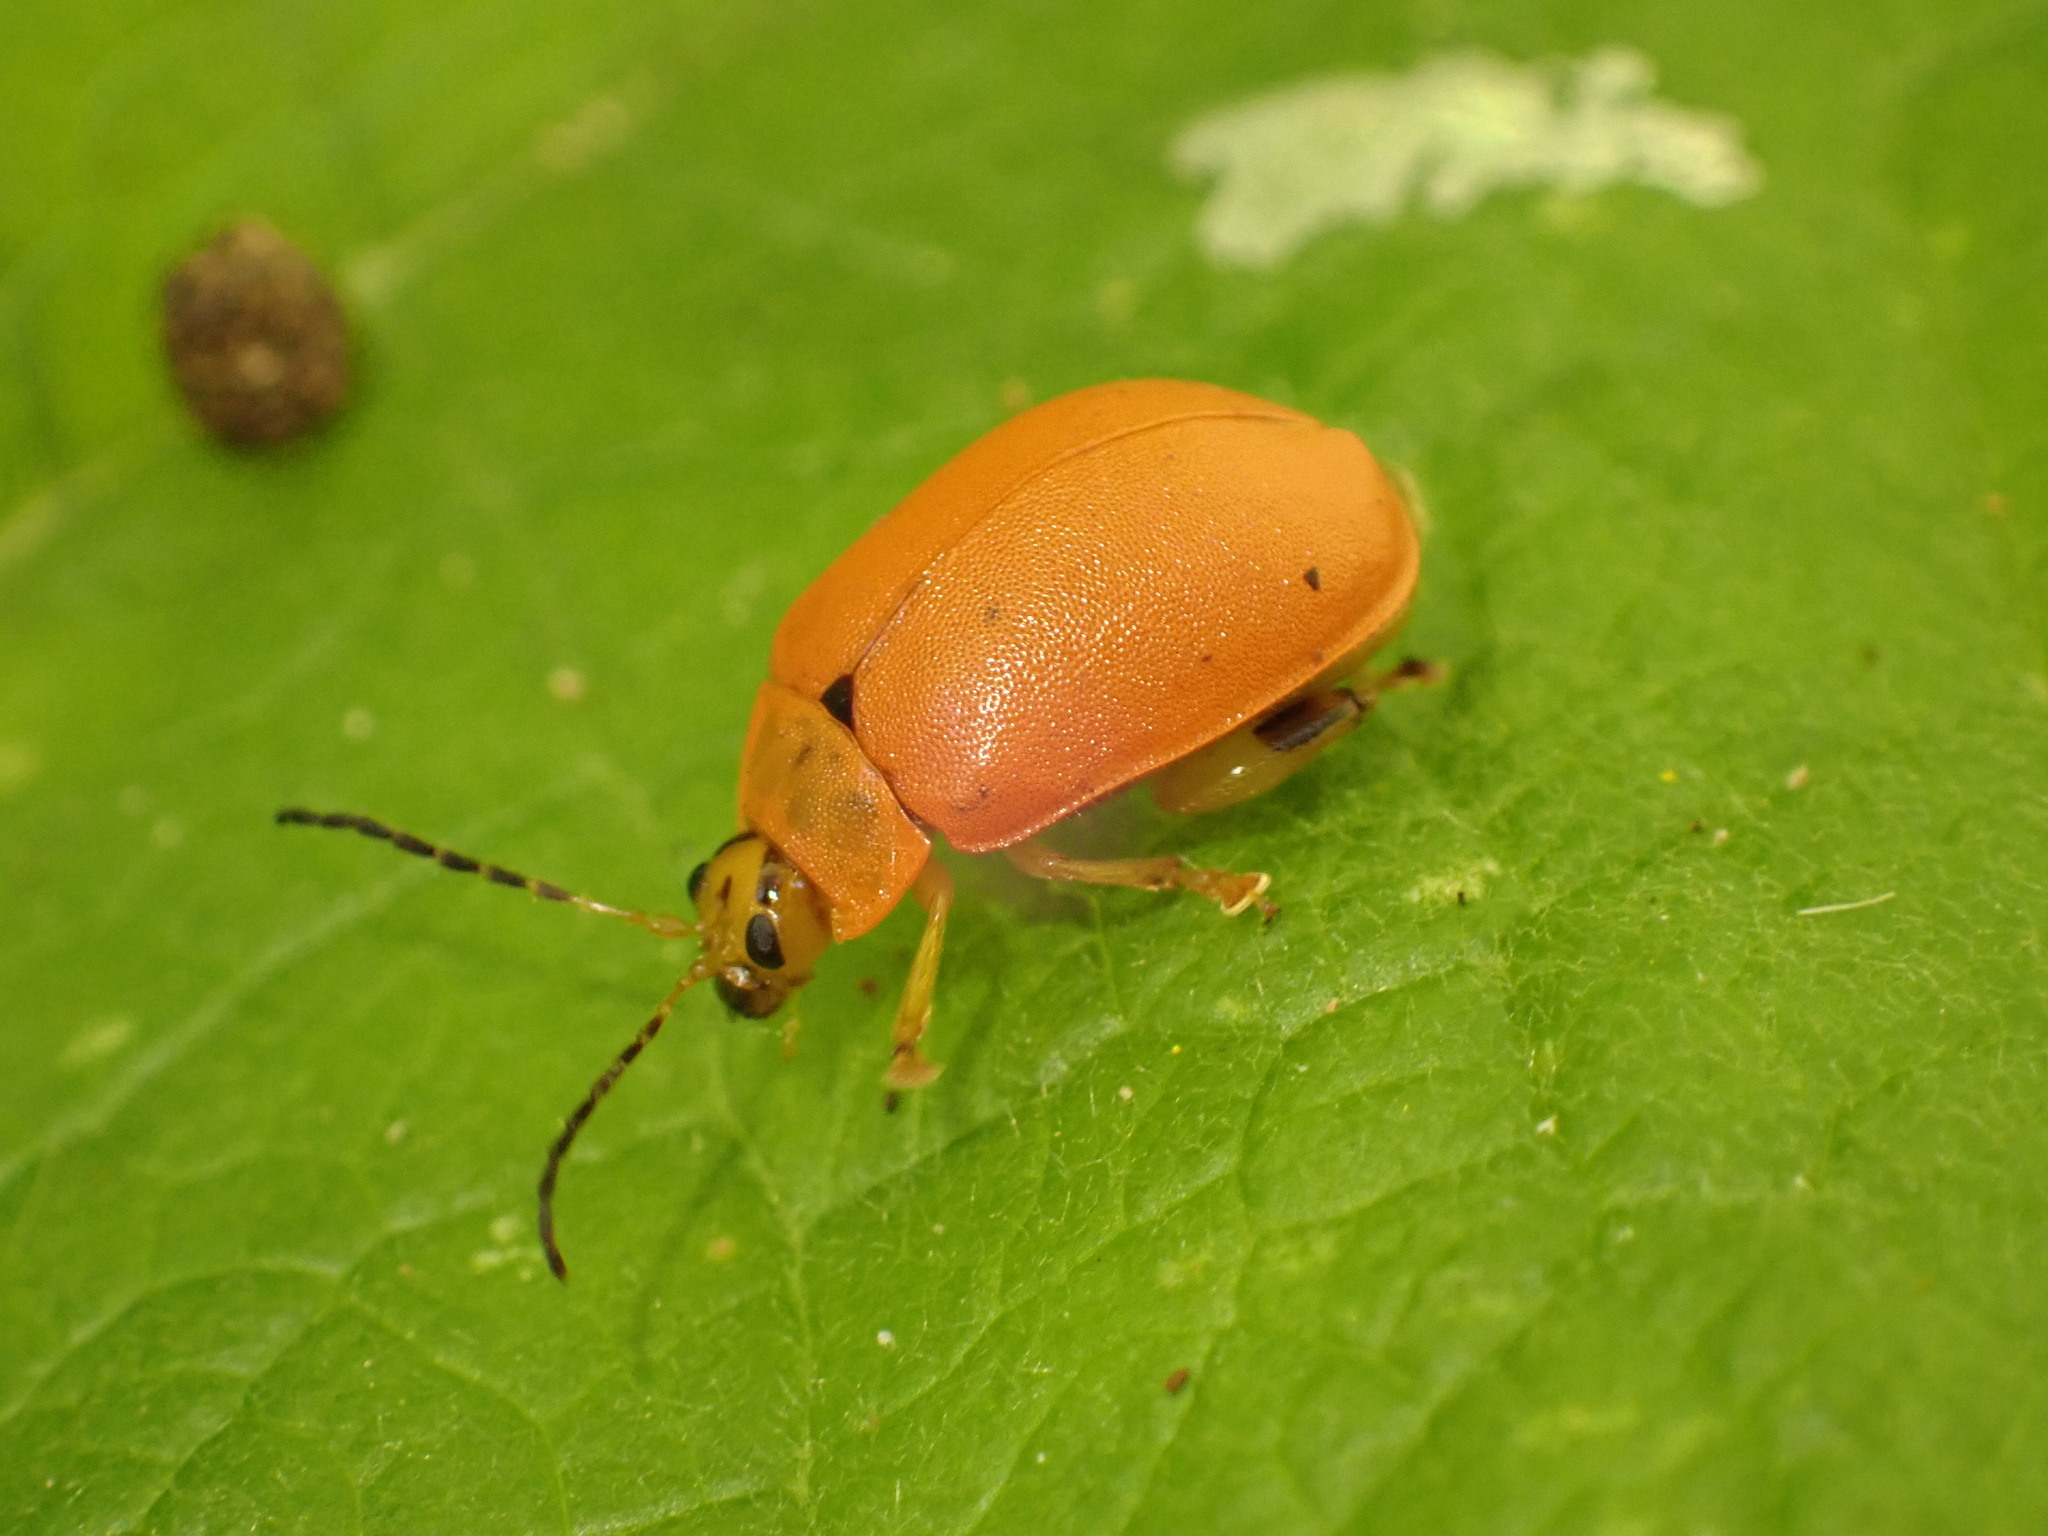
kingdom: Animalia
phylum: Arthropoda
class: Insecta
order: Coleoptera
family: Chrysomelidae
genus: Paranaita
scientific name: Paranaita
